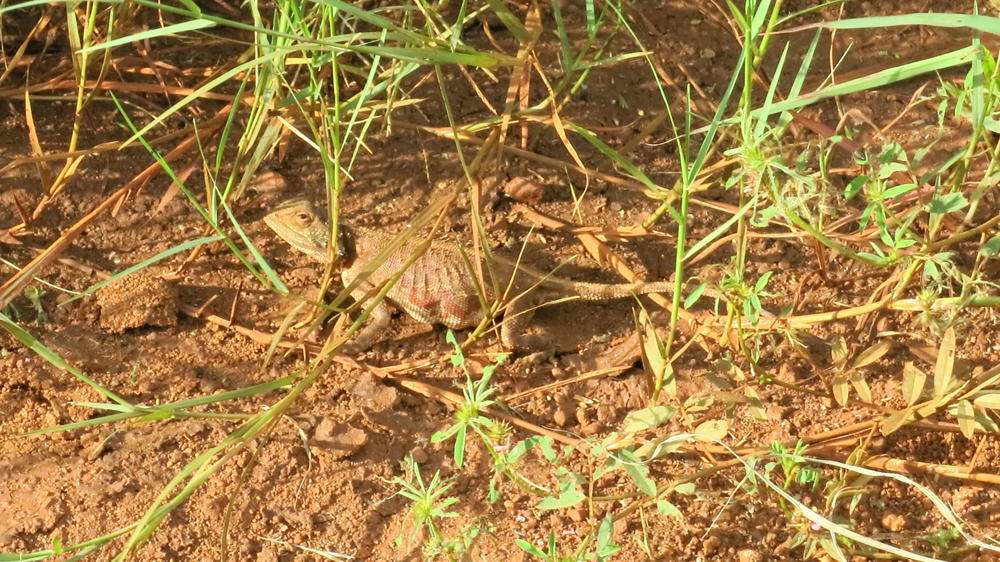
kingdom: Animalia
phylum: Chordata
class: Squamata
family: Agamidae
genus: Agama
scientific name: Agama armata
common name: Northern ground agama
